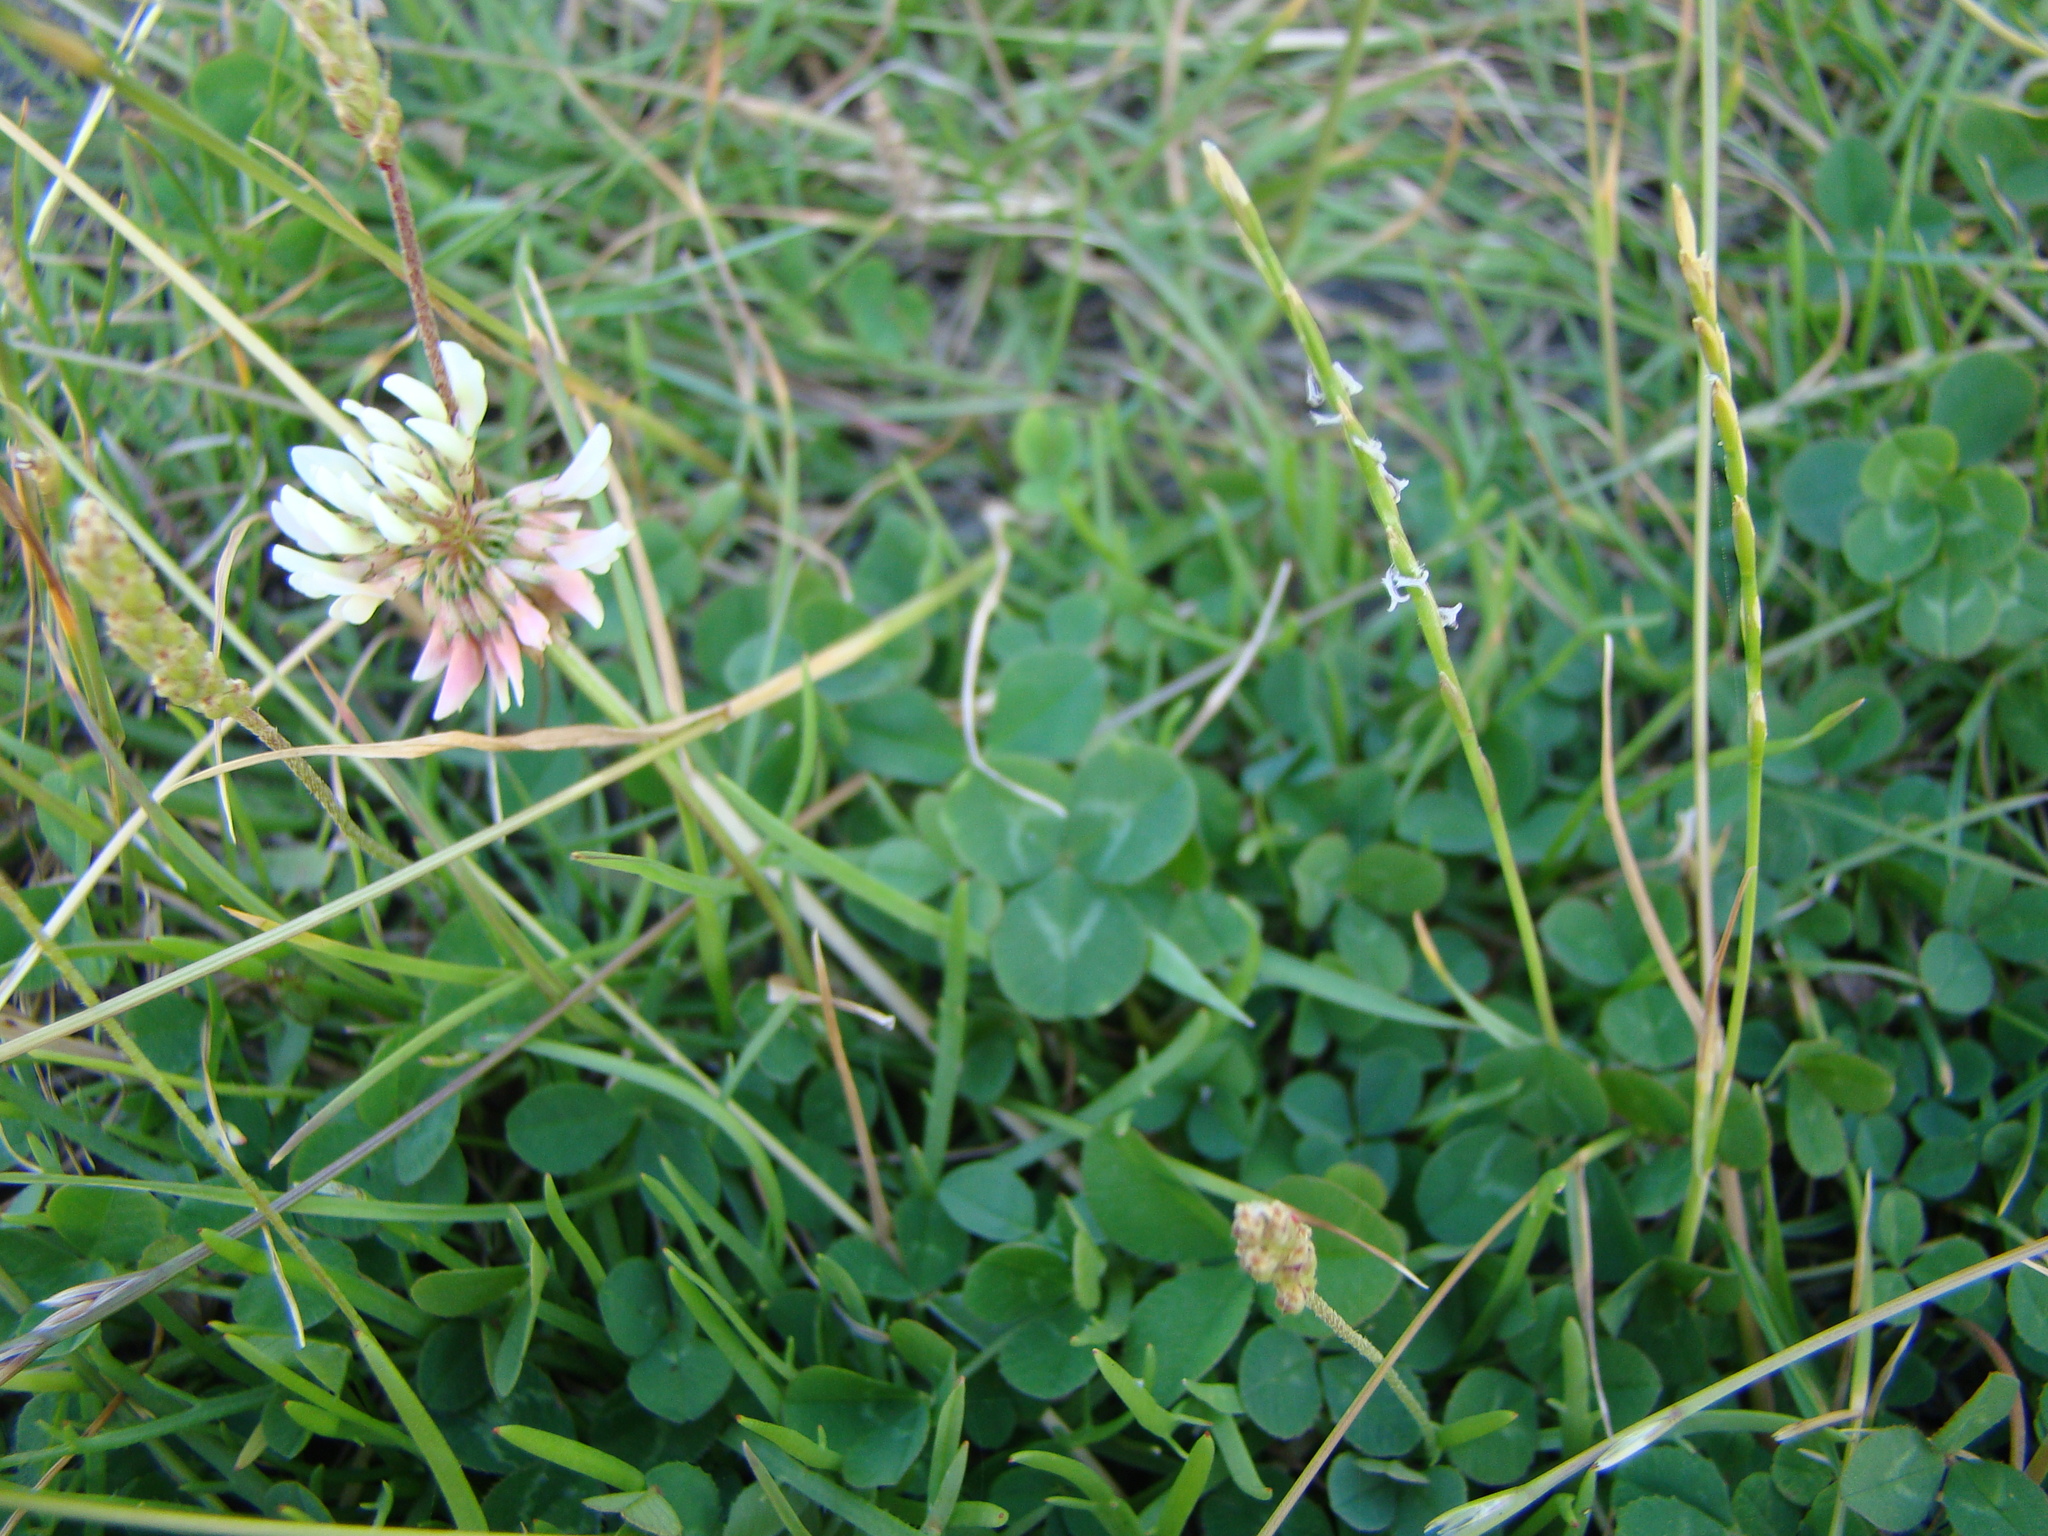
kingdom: Plantae
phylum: Tracheophyta
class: Magnoliopsida
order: Fabales
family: Fabaceae
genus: Trifolium
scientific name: Trifolium repens
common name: White clover
